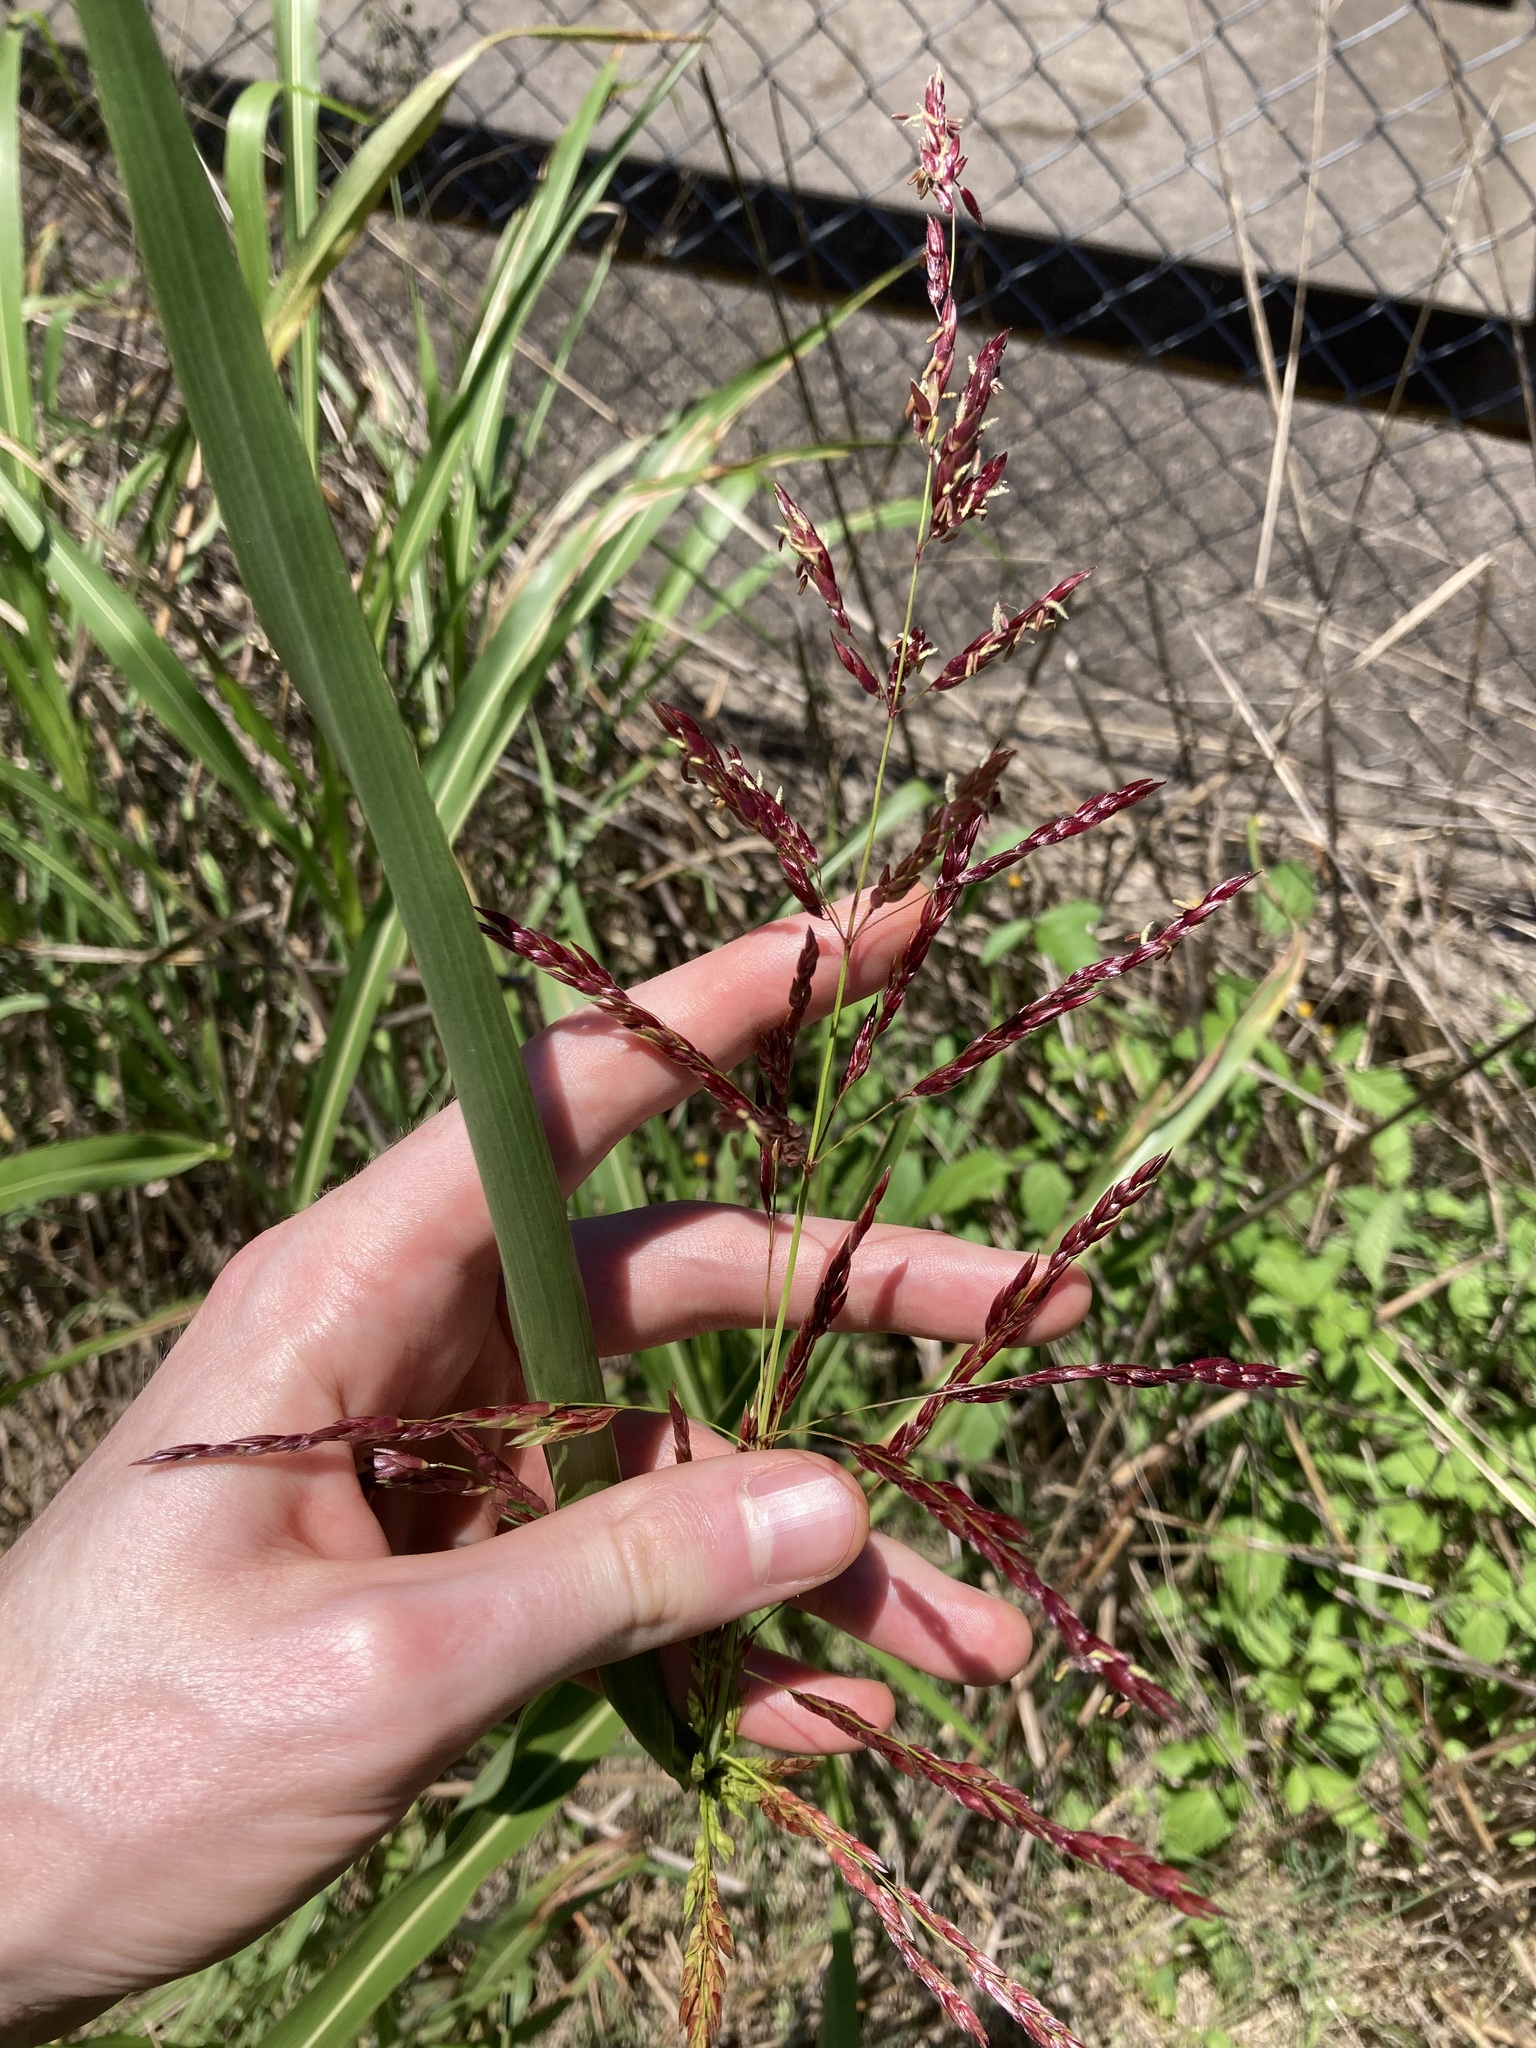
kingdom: Plantae
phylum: Tracheophyta
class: Liliopsida
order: Poales
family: Poaceae
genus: Sorghum
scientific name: Sorghum halepense
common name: Johnson-grass
